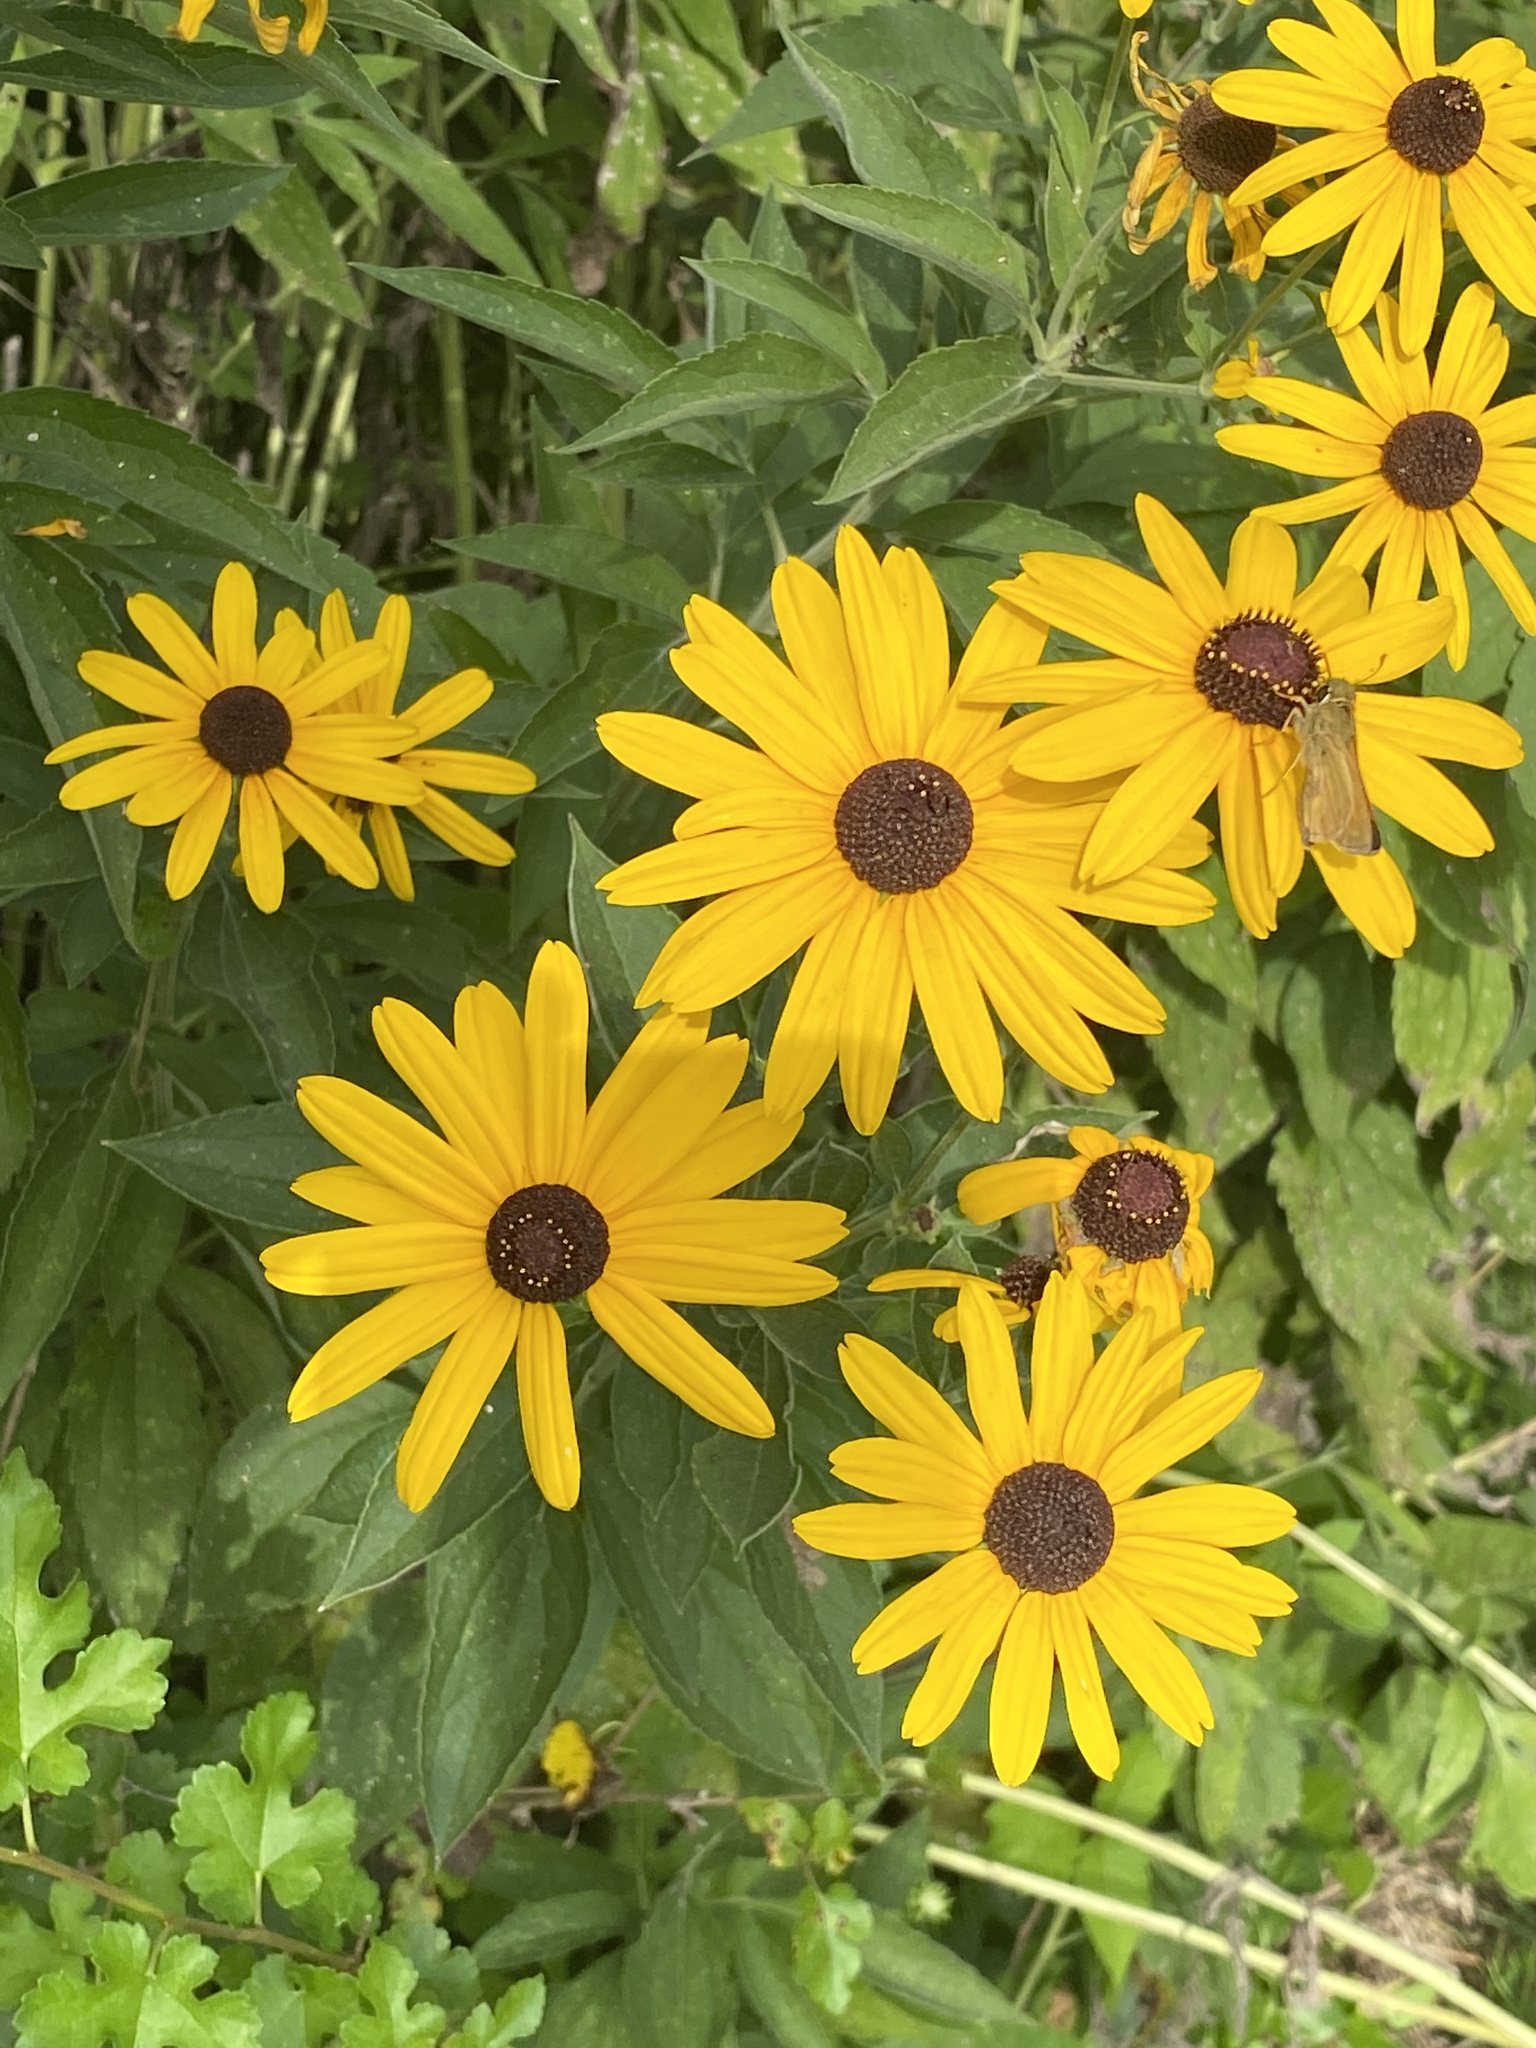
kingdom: Plantae
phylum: Tracheophyta
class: Magnoliopsida
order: Asterales
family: Asteraceae
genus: Rudbeckia
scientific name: Rudbeckia subtomentosa
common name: Sweet coneflower
